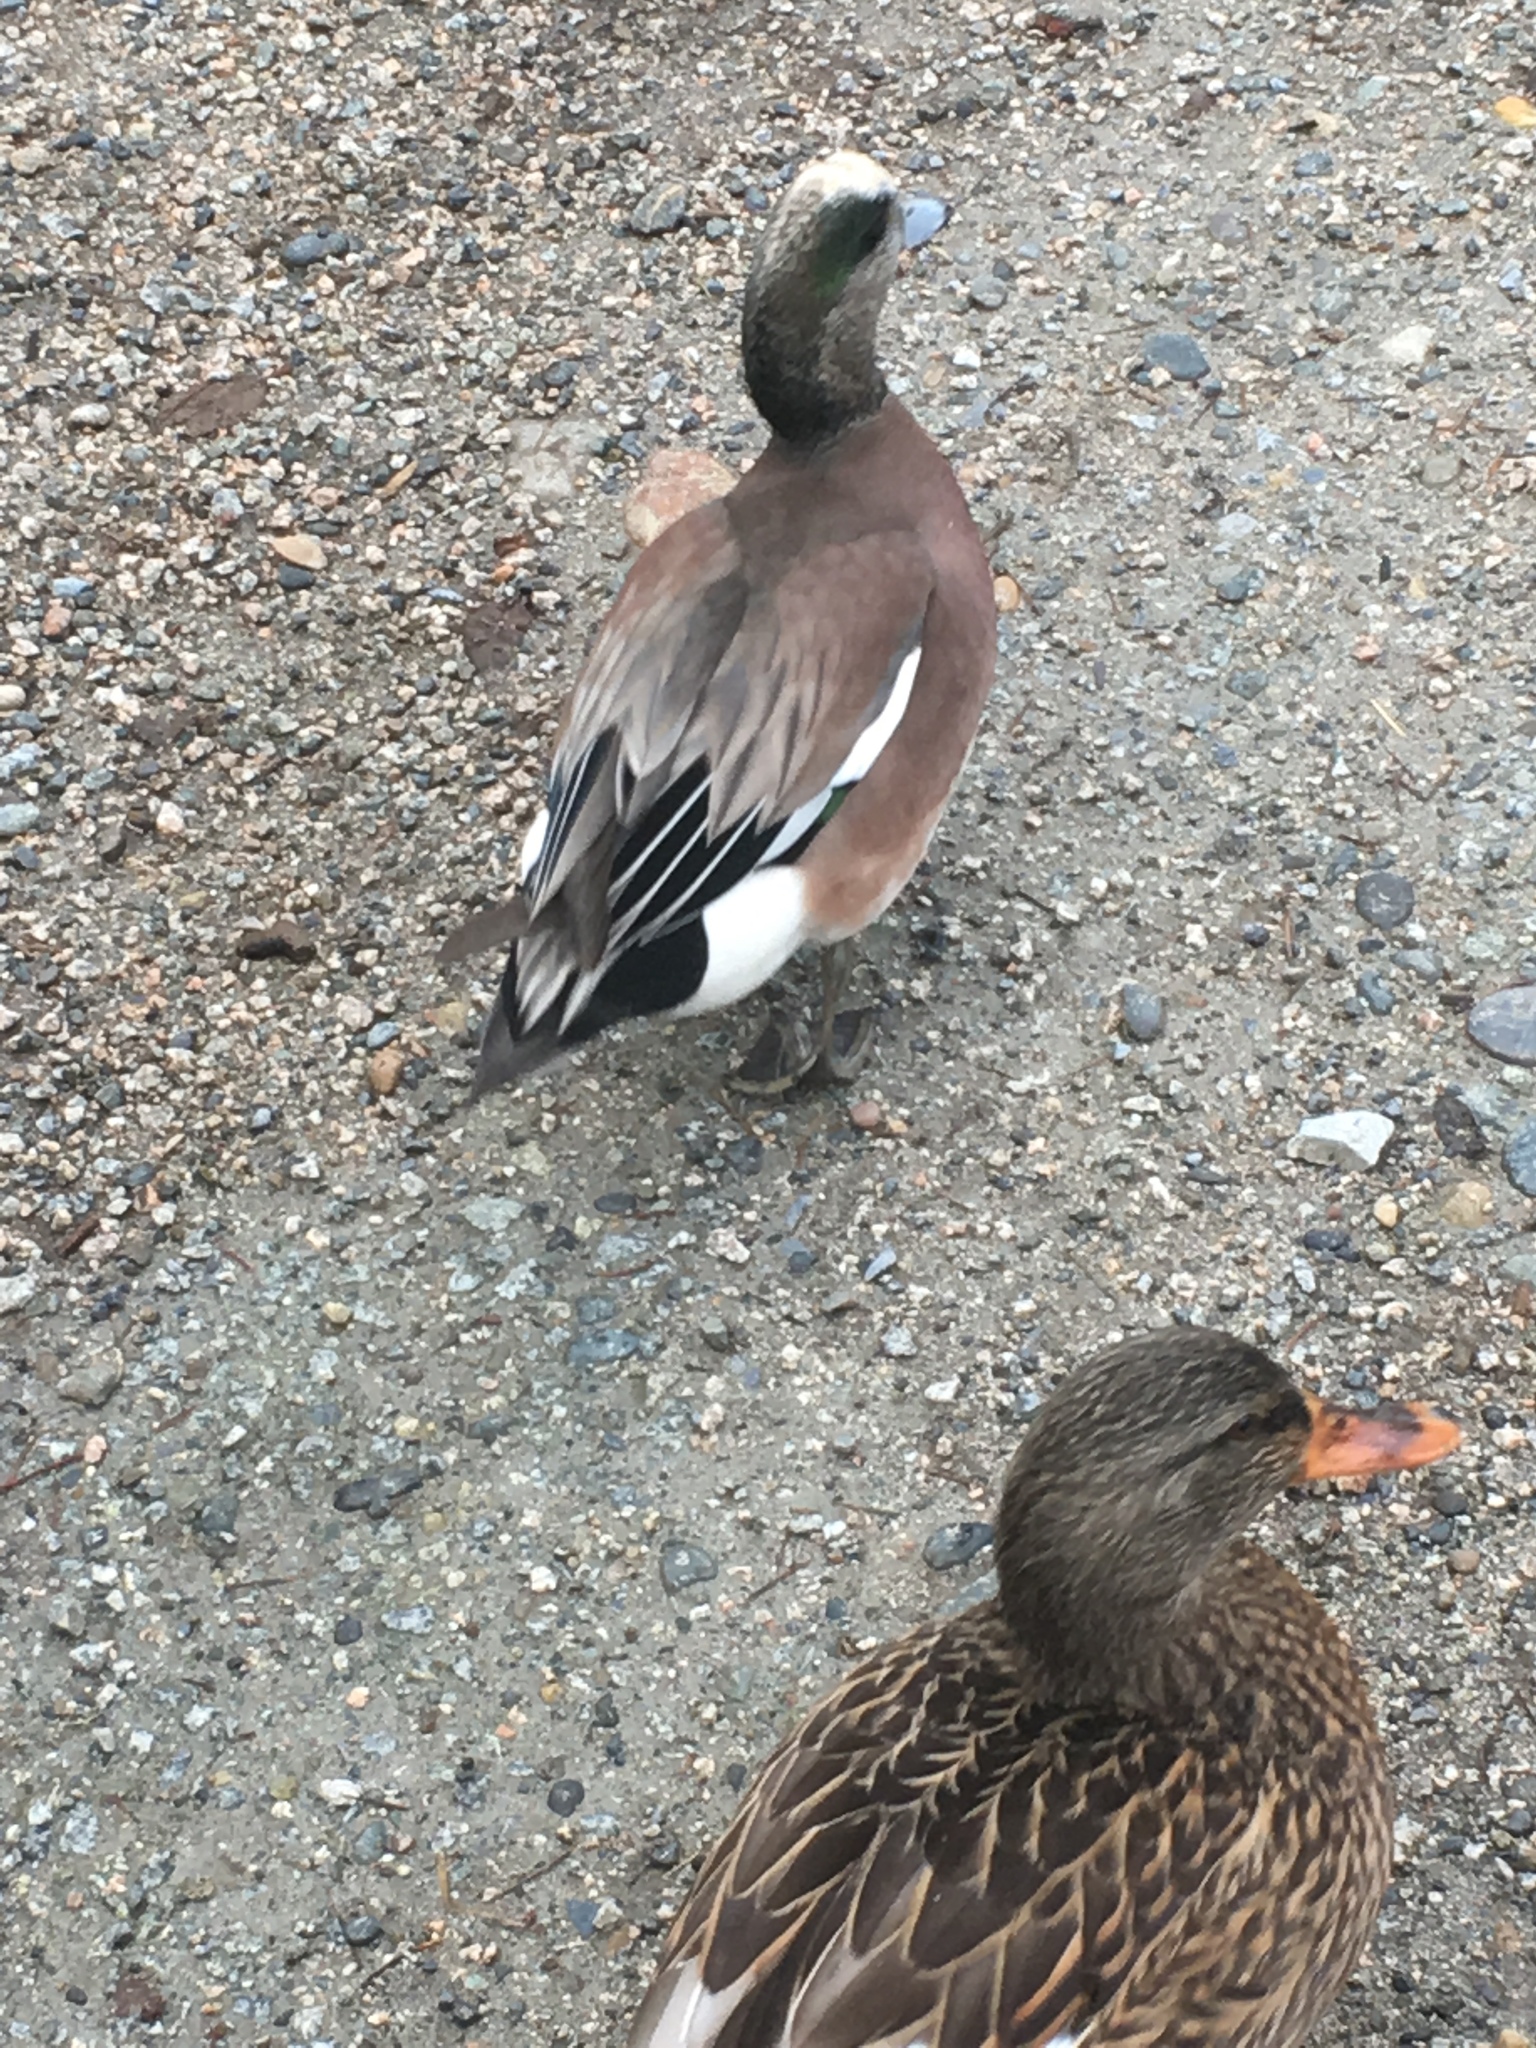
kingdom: Animalia
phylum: Chordata
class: Aves
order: Anseriformes
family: Anatidae
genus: Mareca
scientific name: Mareca americana
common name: American wigeon
